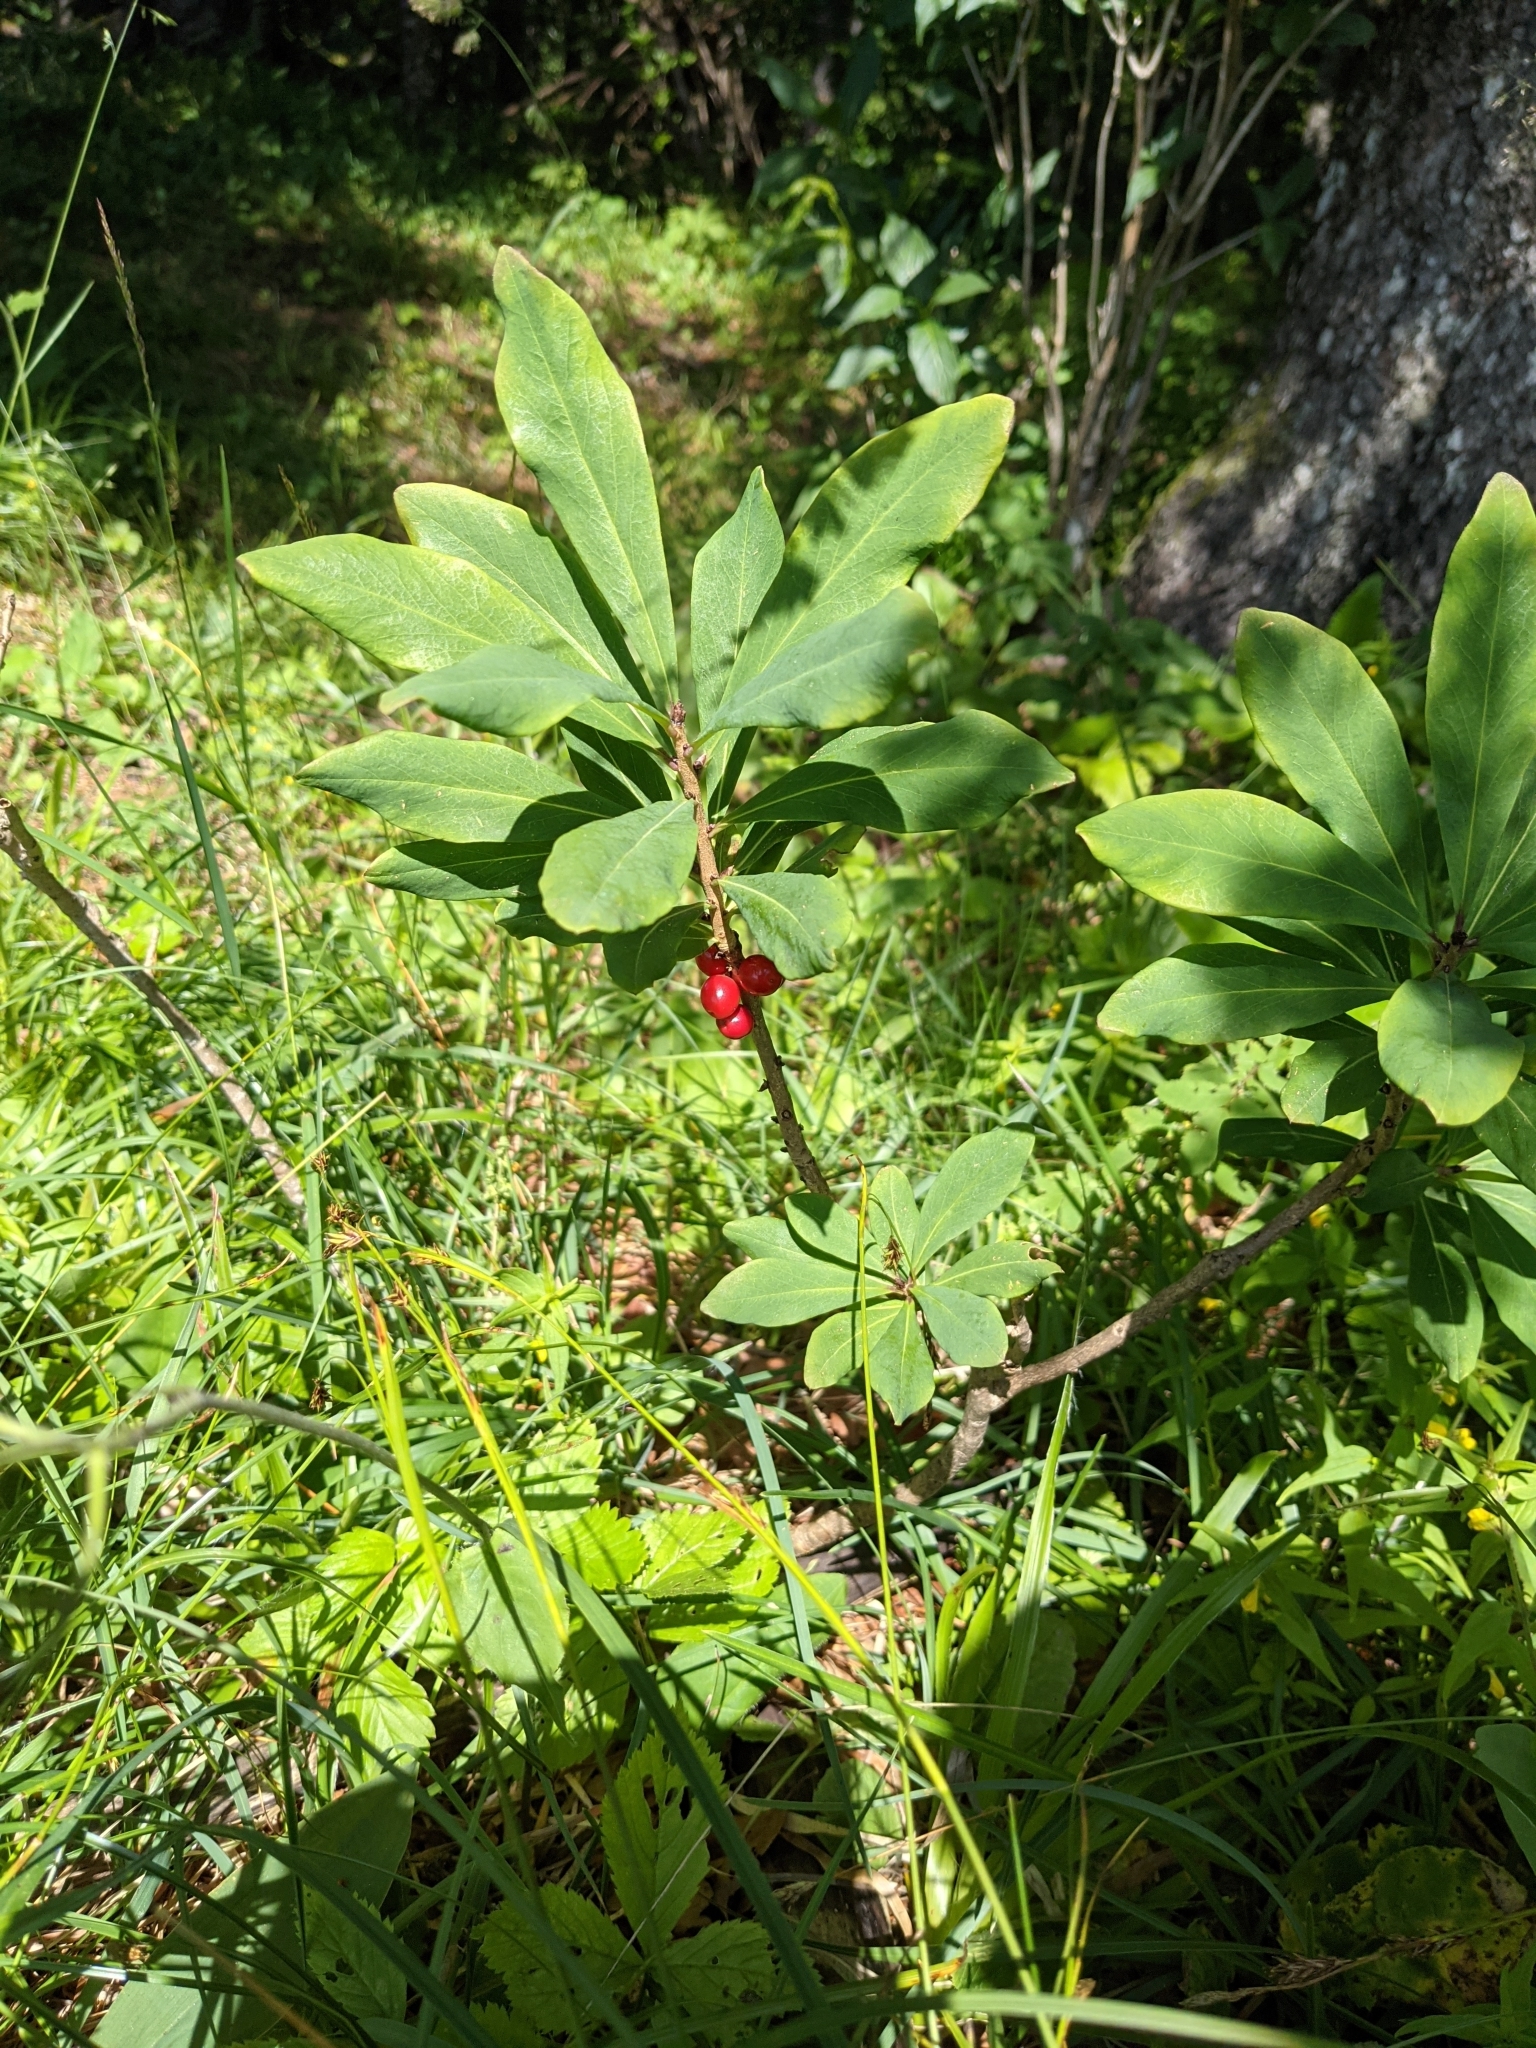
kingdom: Plantae
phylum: Tracheophyta
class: Magnoliopsida
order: Malvales
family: Thymelaeaceae
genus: Daphne
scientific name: Daphne mezereum
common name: Mezereon
